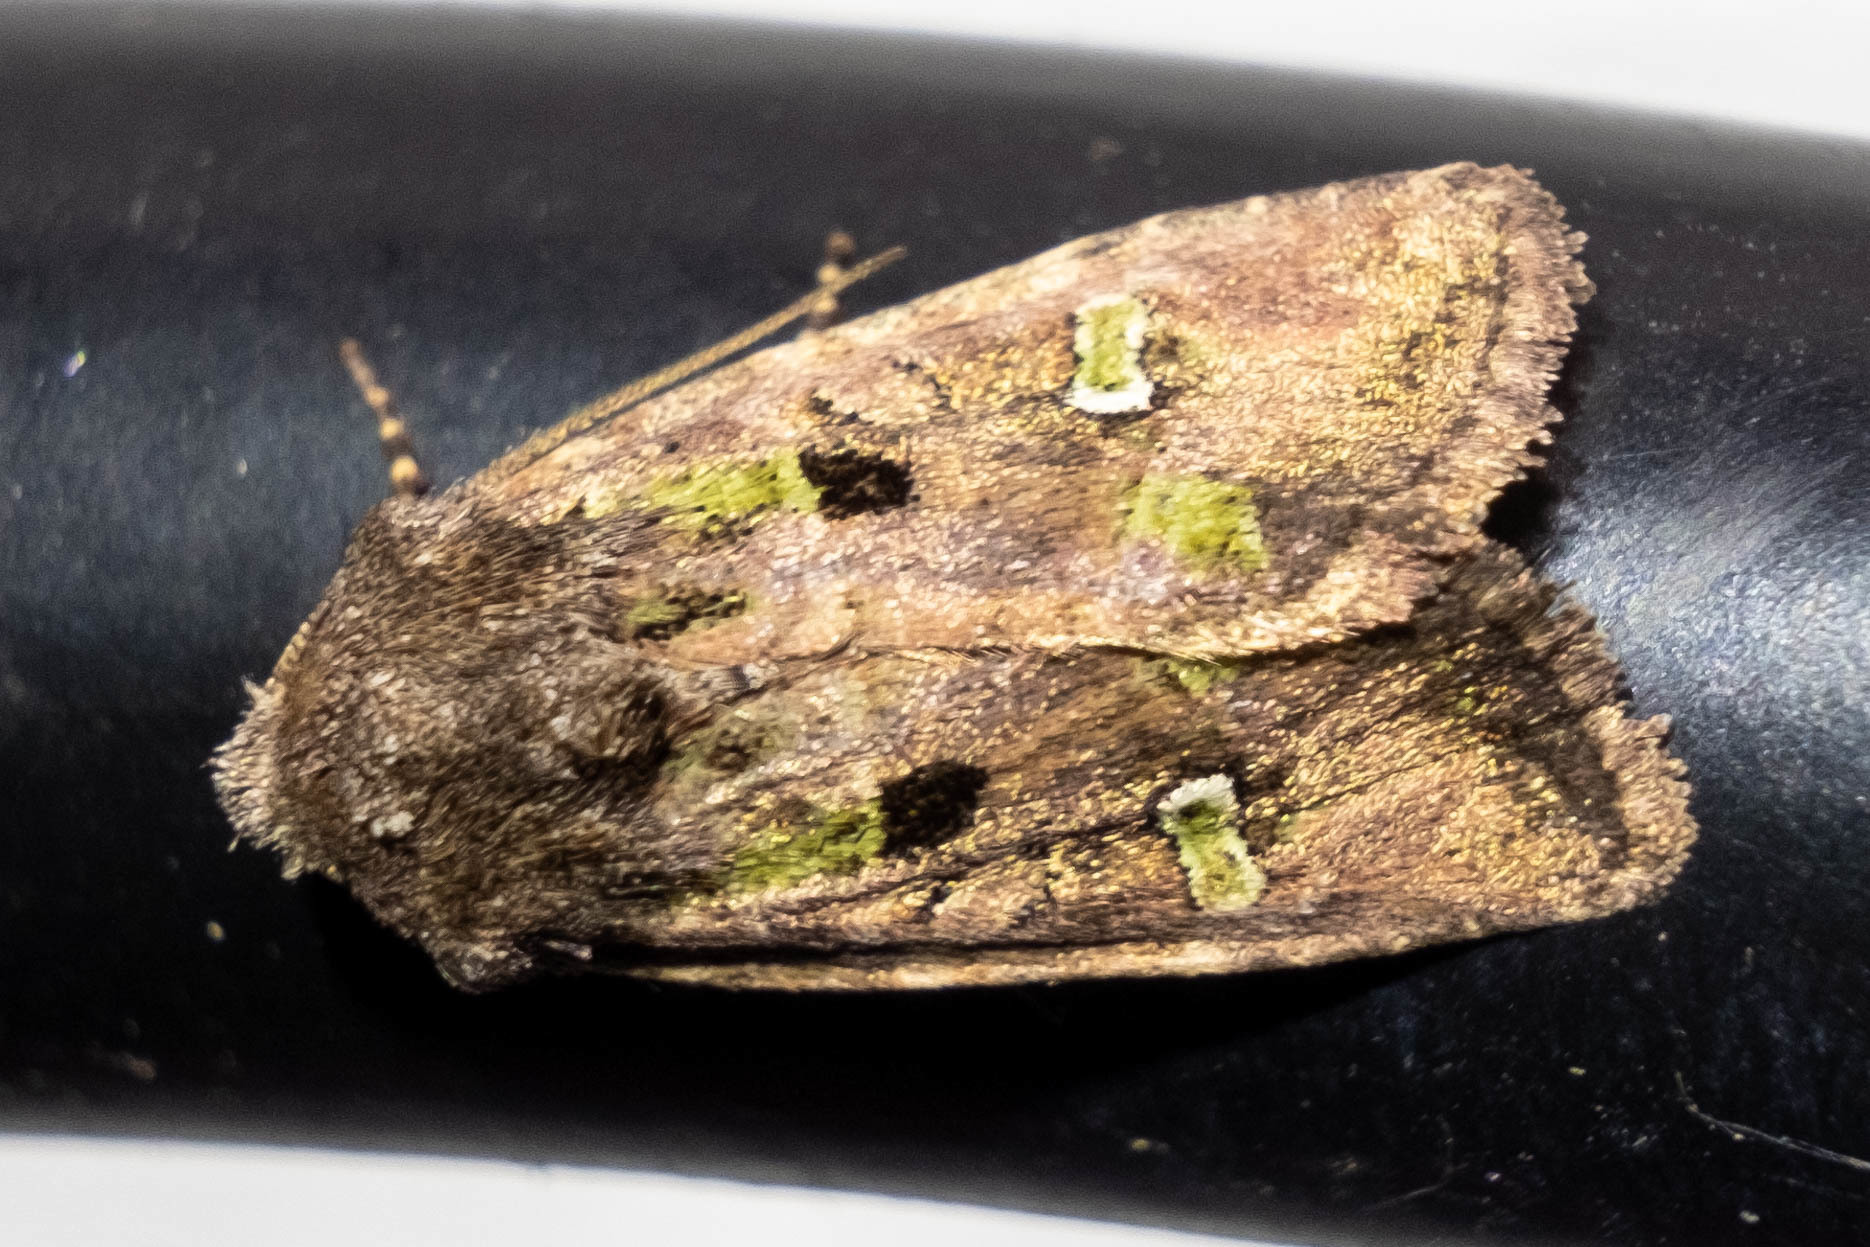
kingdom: Animalia
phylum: Arthropoda
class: Insecta
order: Lepidoptera
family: Noctuidae
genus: Lacinipolia
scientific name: Lacinipolia renigera
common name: Kidney-spotted minor
